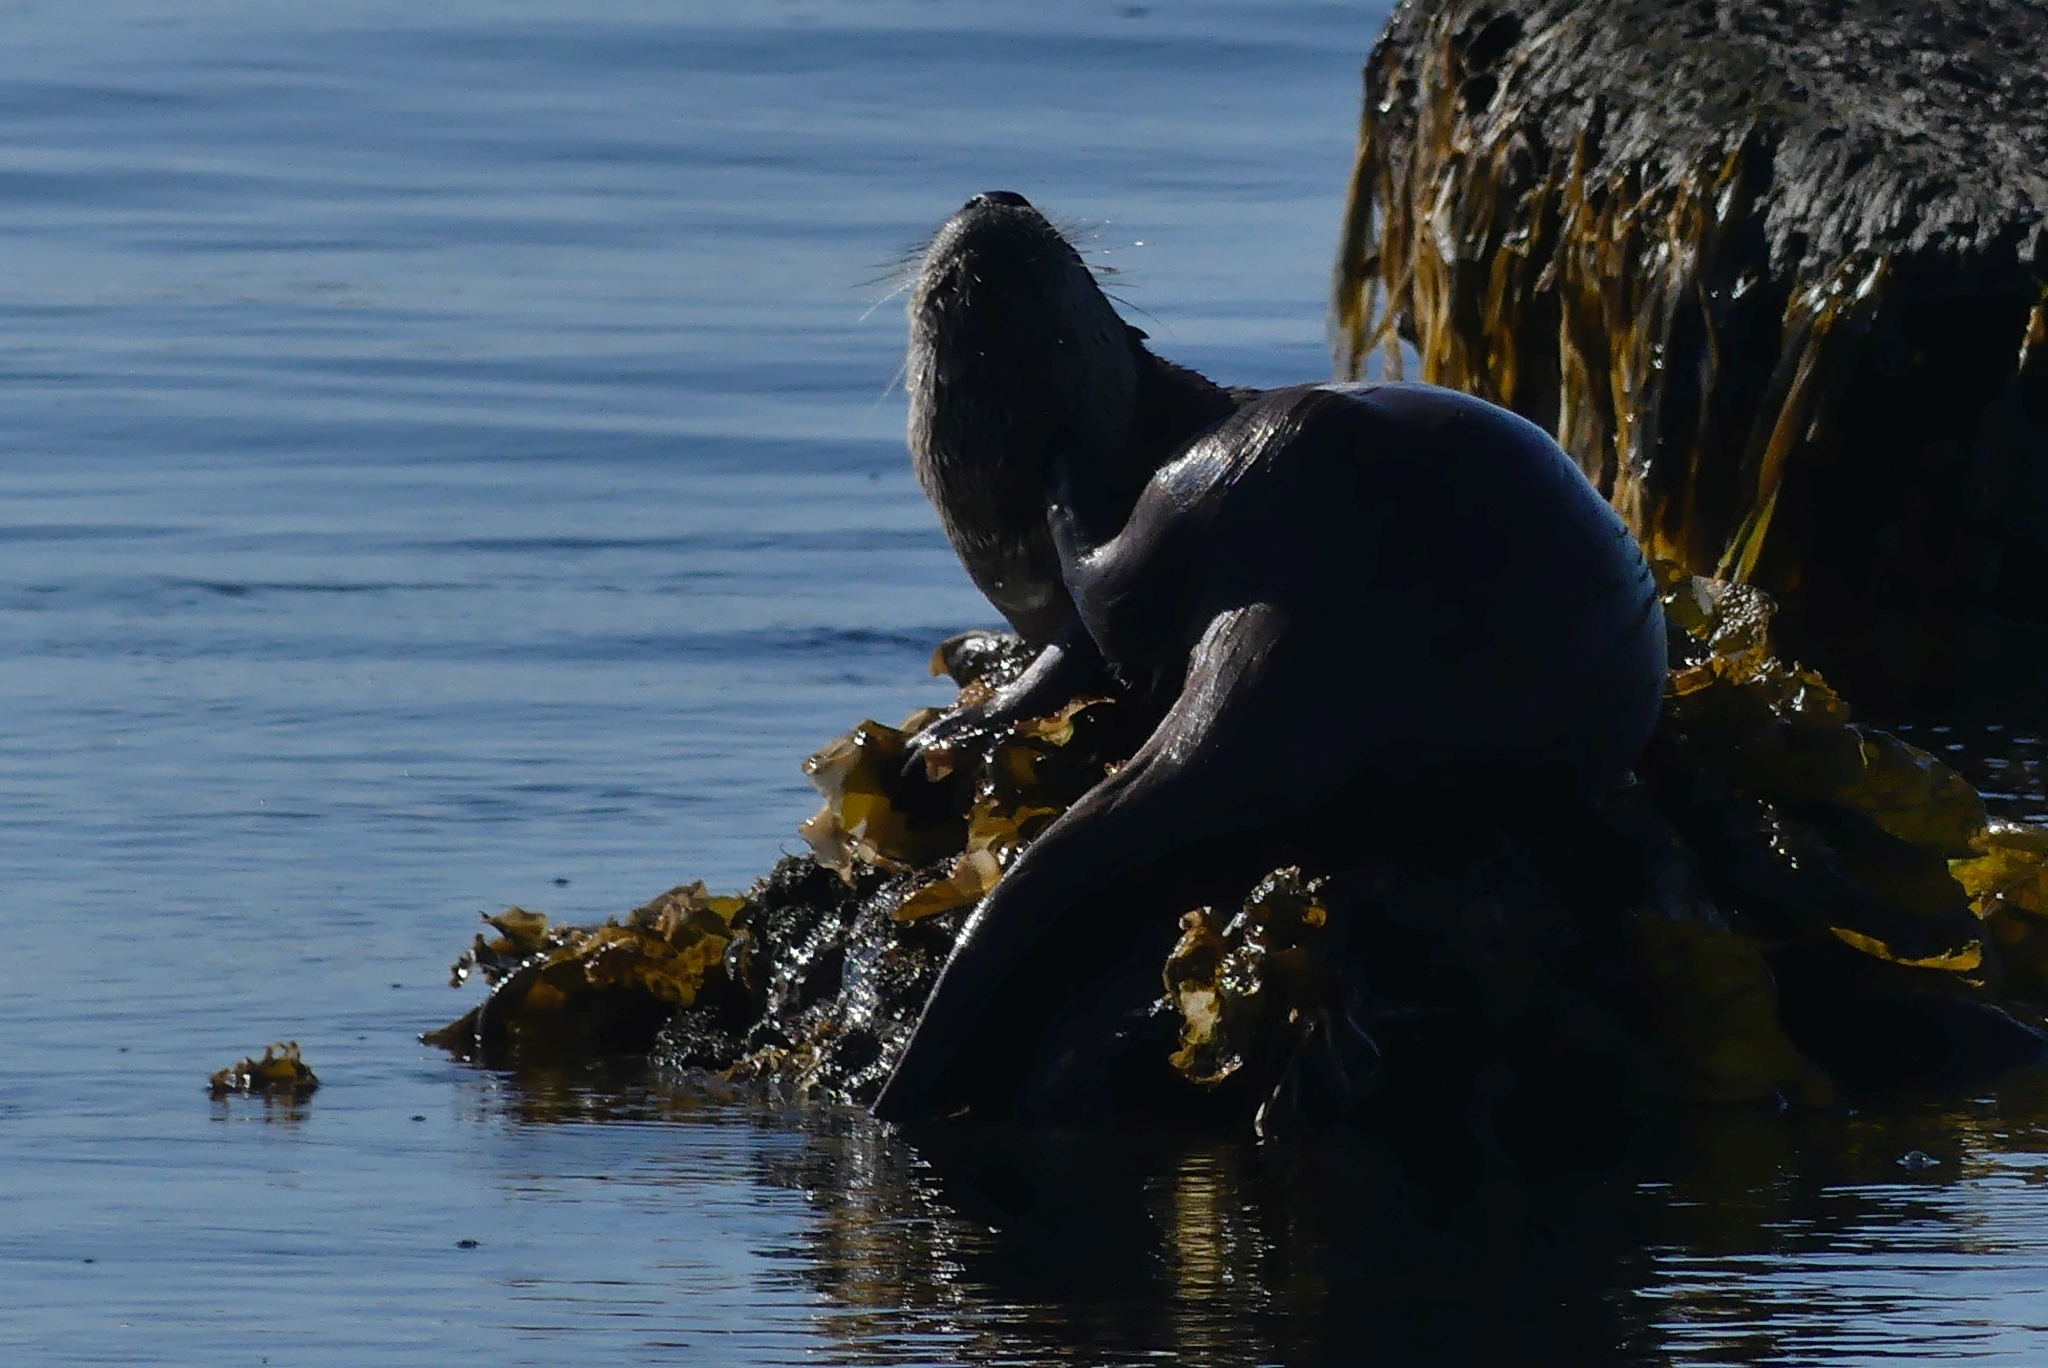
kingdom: Animalia
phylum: Chordata
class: Mammalia
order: Carnivora
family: Mustelidae
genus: Lontra
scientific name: Lontra canadensis
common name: North american river otter
